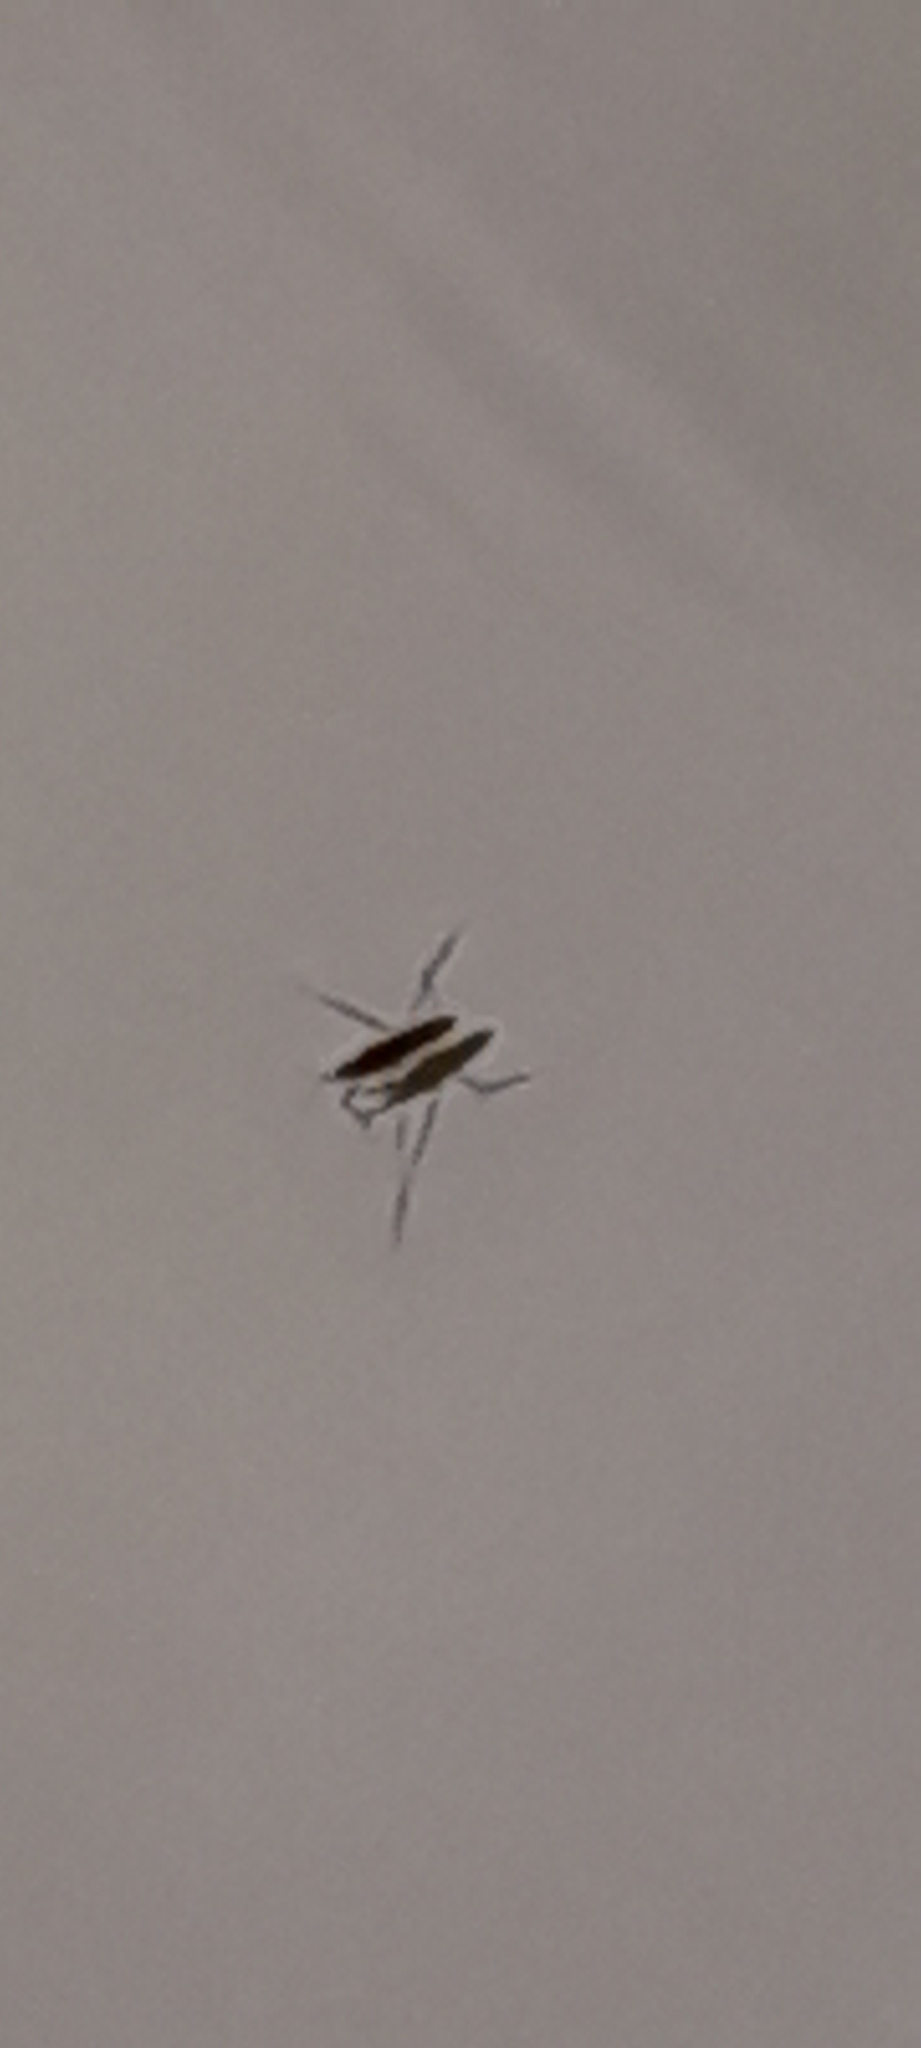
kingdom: Animalia
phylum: Arthropoda
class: Insecta
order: Hemiptera
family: Gerridae
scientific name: Gerridae
